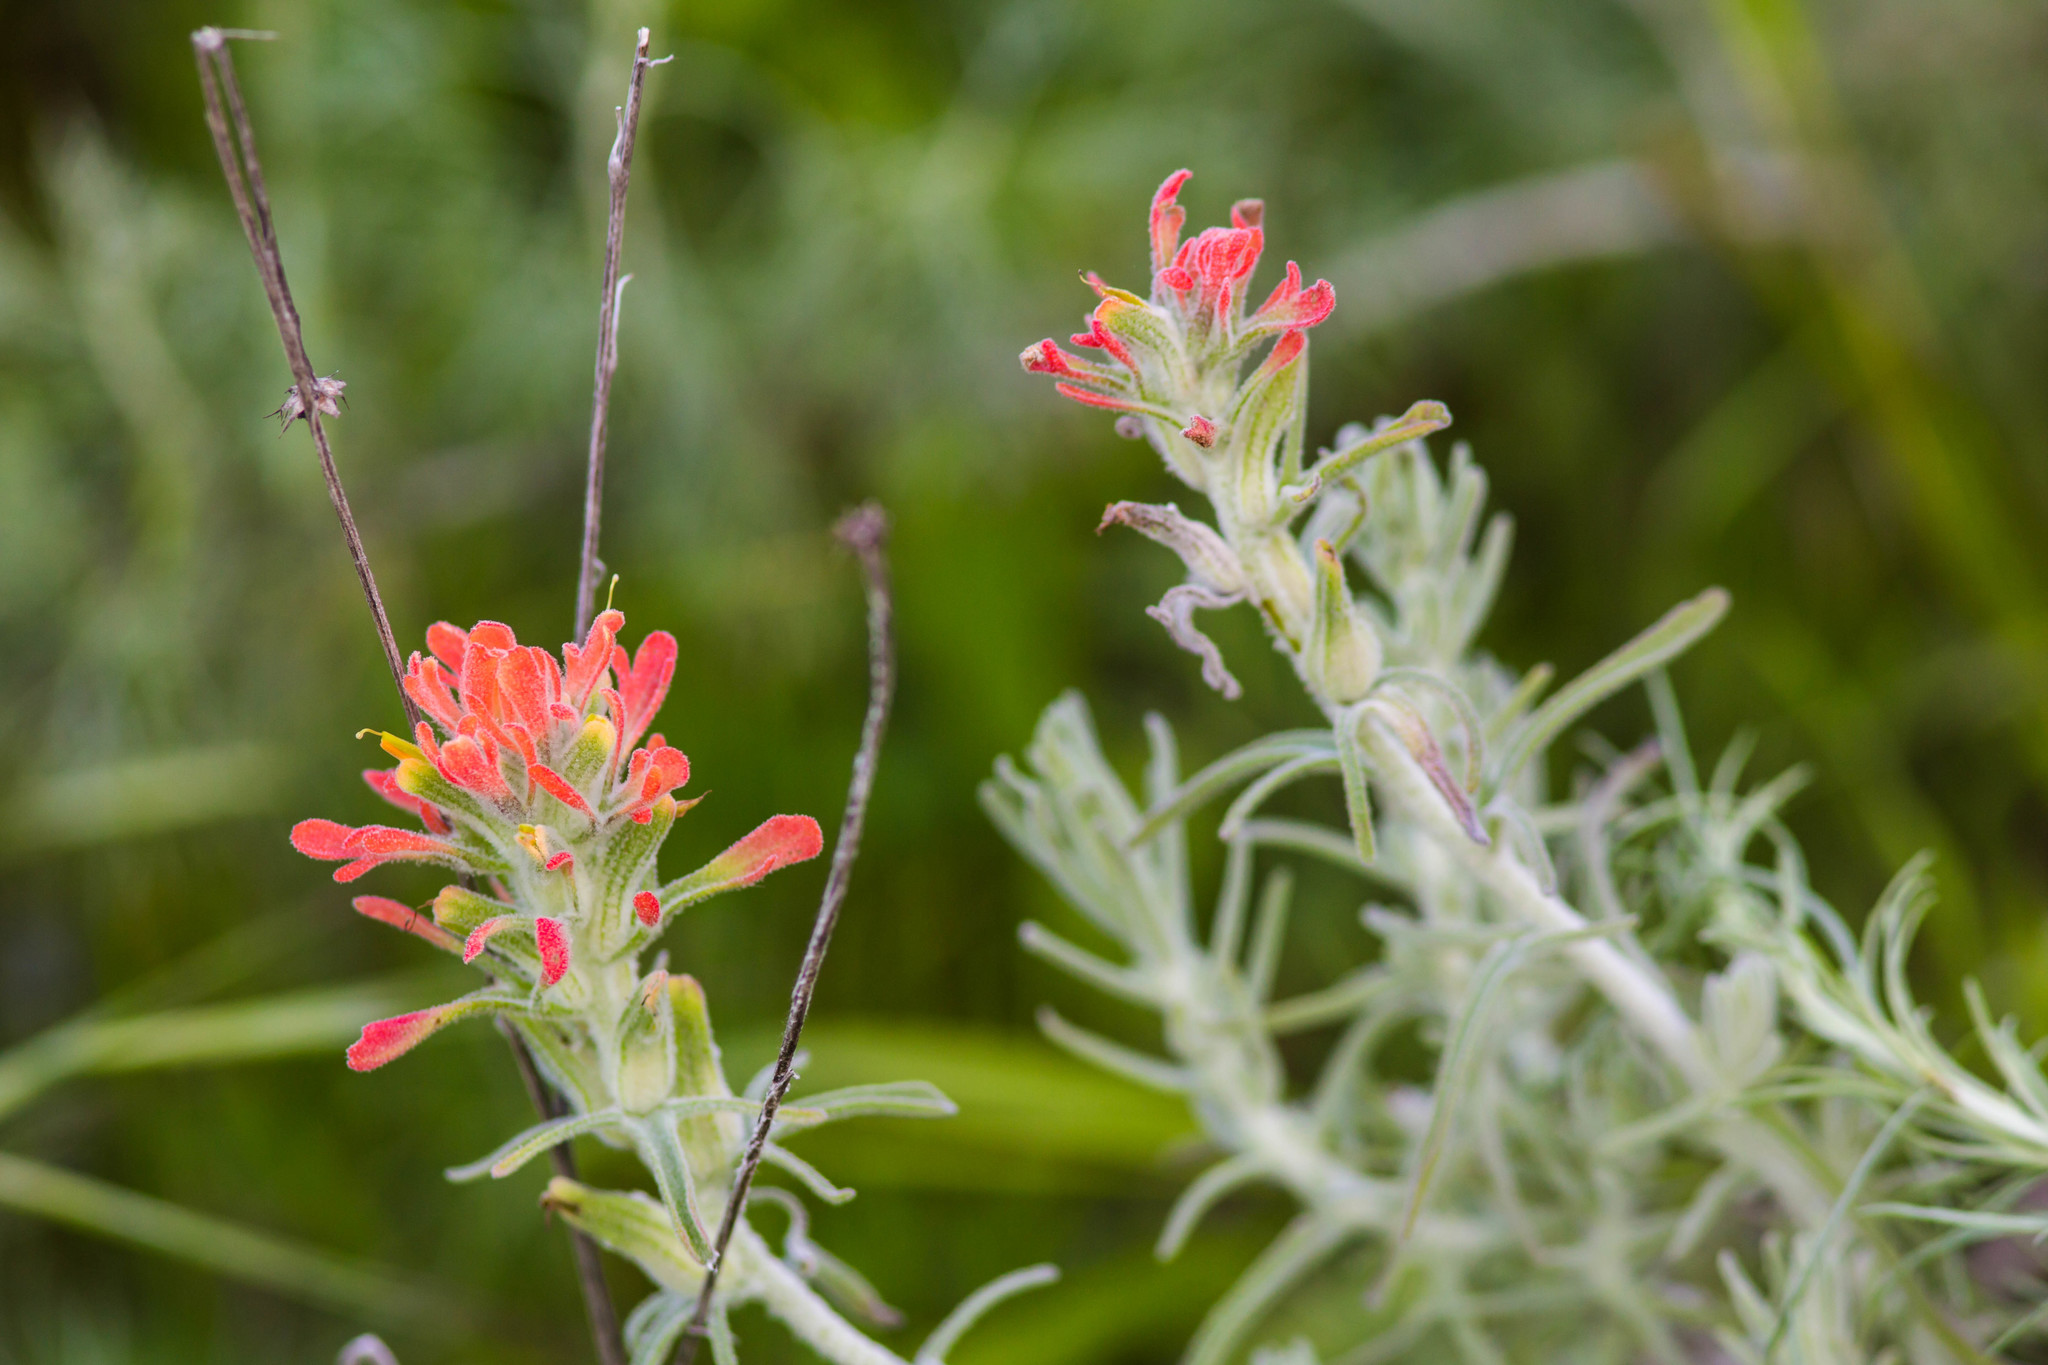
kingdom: Plantae
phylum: Tracheophyta
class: Magnoliopsida
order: Lamiales
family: Orobanchaceae
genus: Castilleja
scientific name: Castilleja foliolosa
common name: Woolly indian paintbrush
